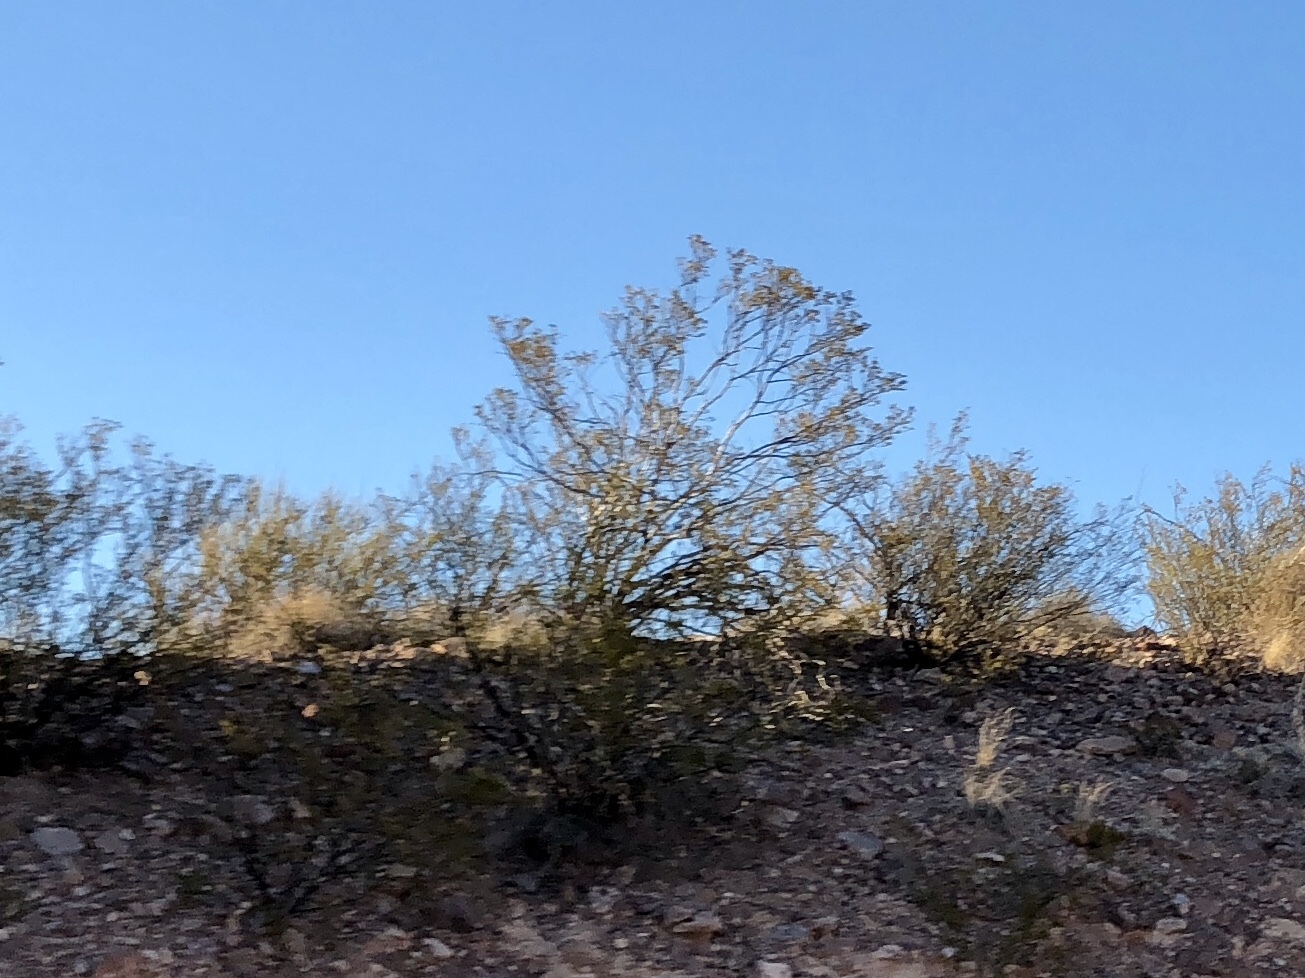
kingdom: Plantae
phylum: Tracheophyta
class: Magnoliopsida
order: Zygophyllales
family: Zygophyllaceae
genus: Larrea
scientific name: Larrea tridentata
